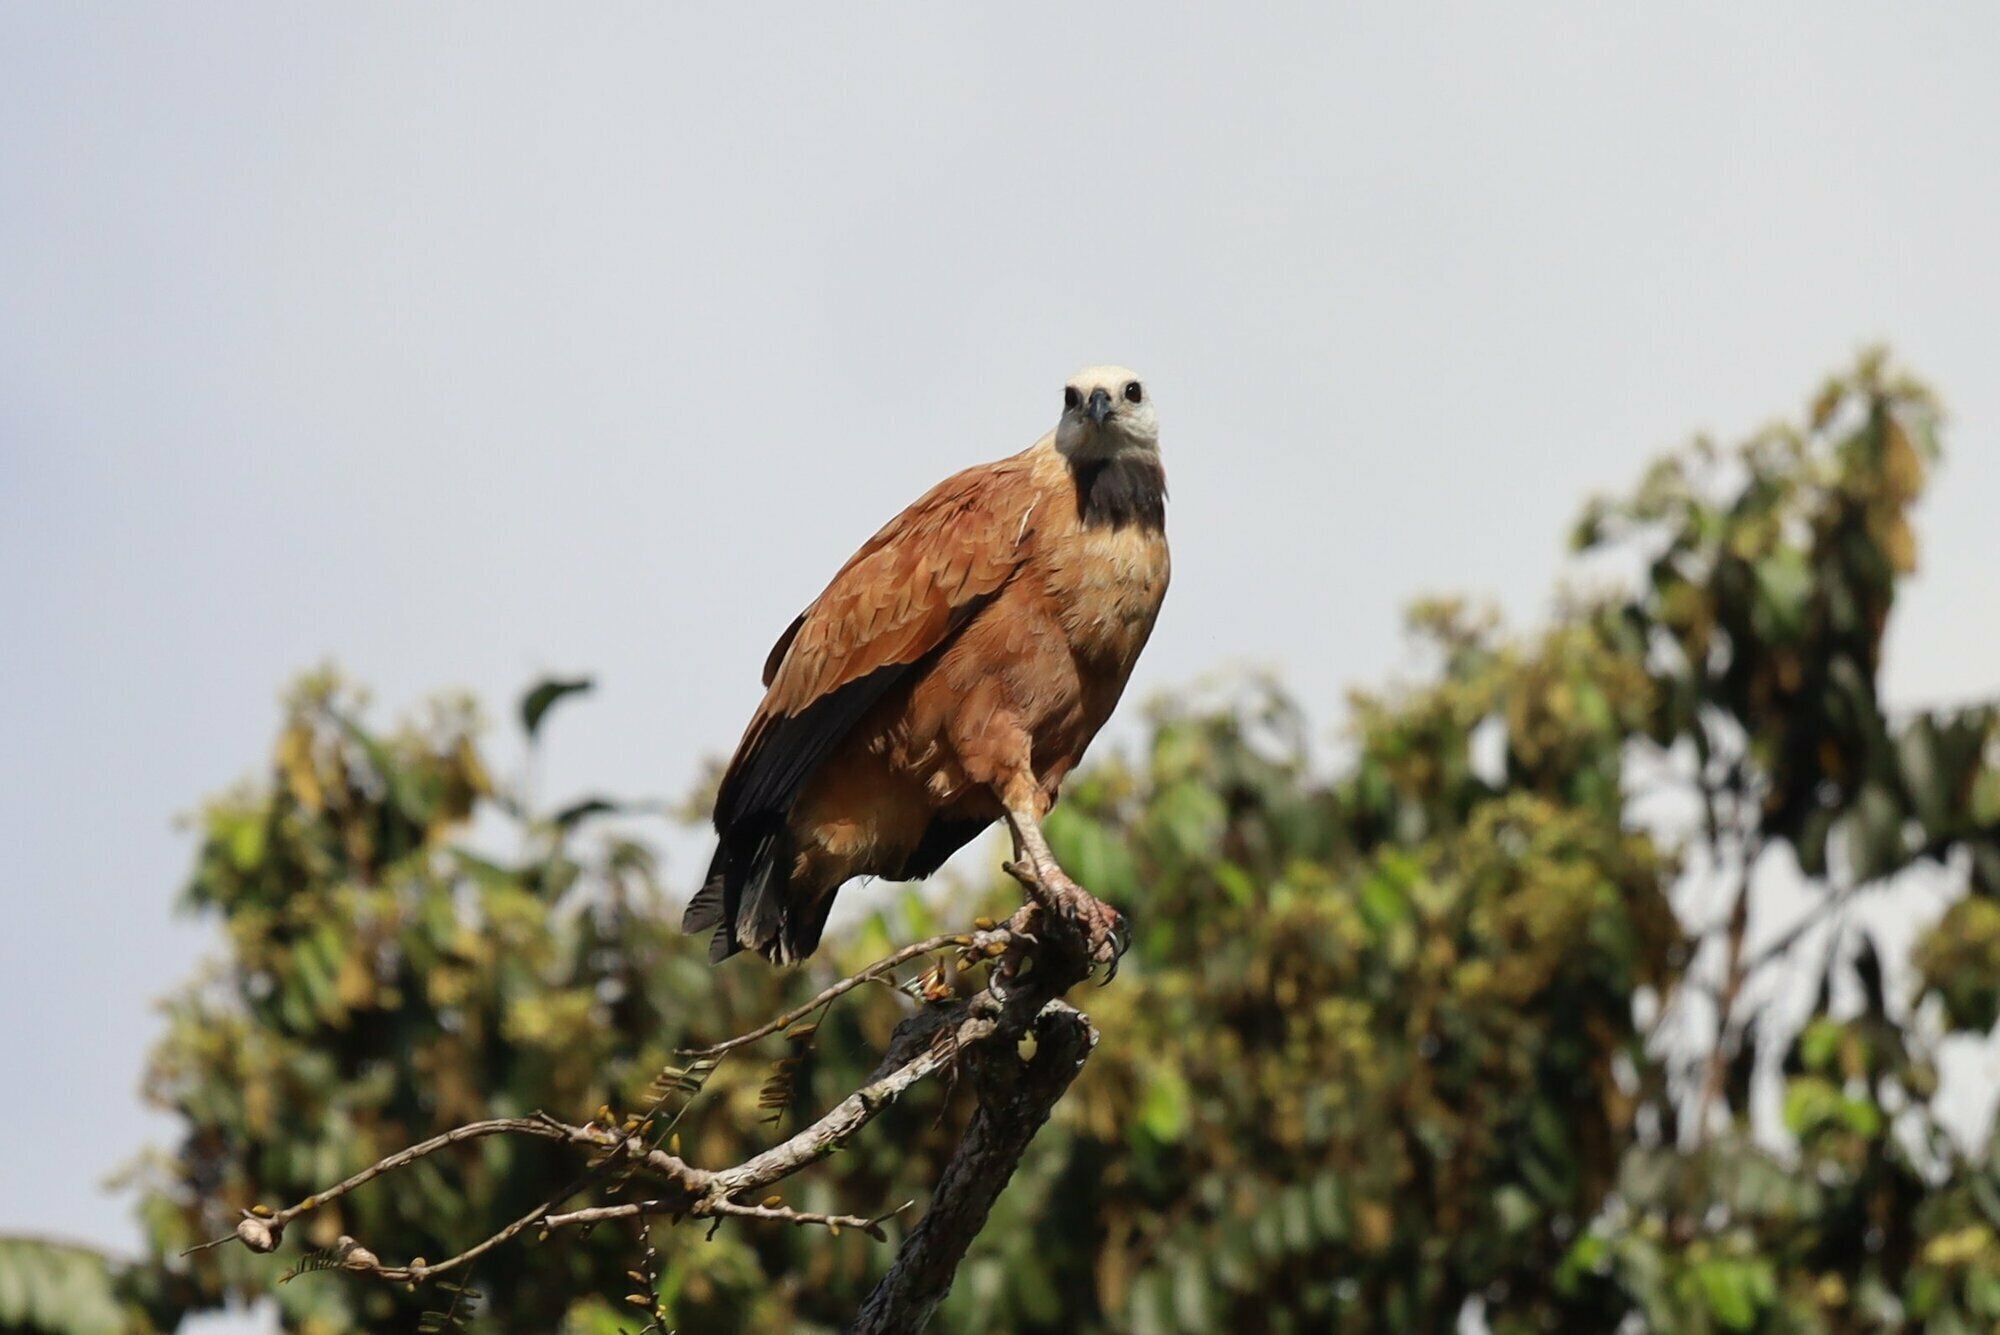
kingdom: Animalia
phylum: Chordata
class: Aves
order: Accipitriformes
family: Accipitridae
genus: Busarellus
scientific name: Busarellus nigricollis
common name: Black-collared hawk
